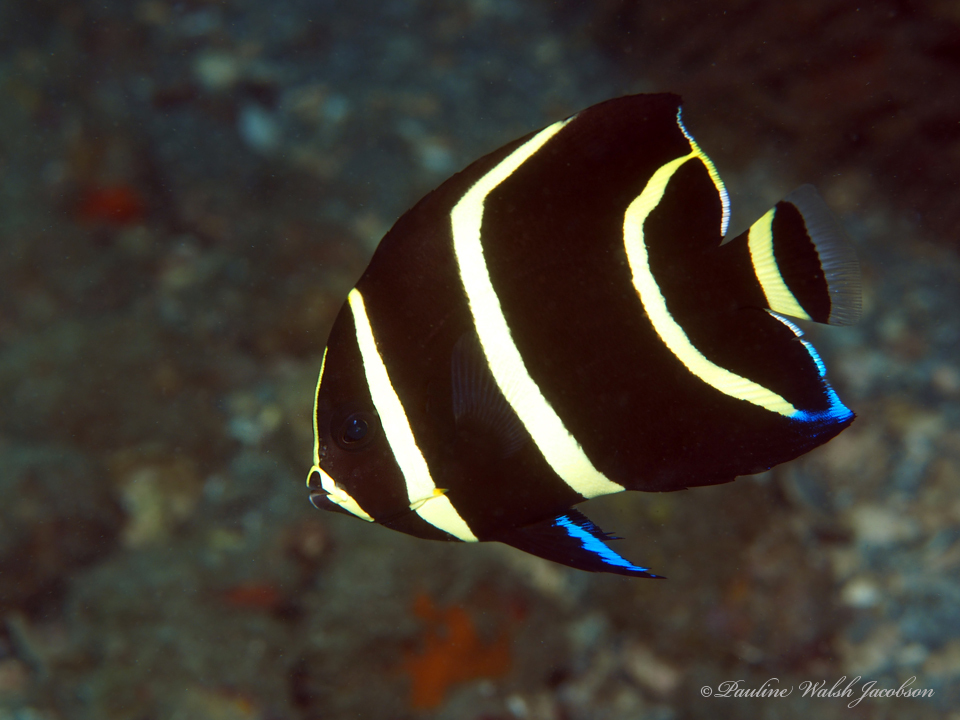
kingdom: Animalia
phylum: Chordata
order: Perciformes
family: Pomacanthidae
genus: Pomacanthus
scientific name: Pomacanthus arcuatus
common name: Gray angelfish
